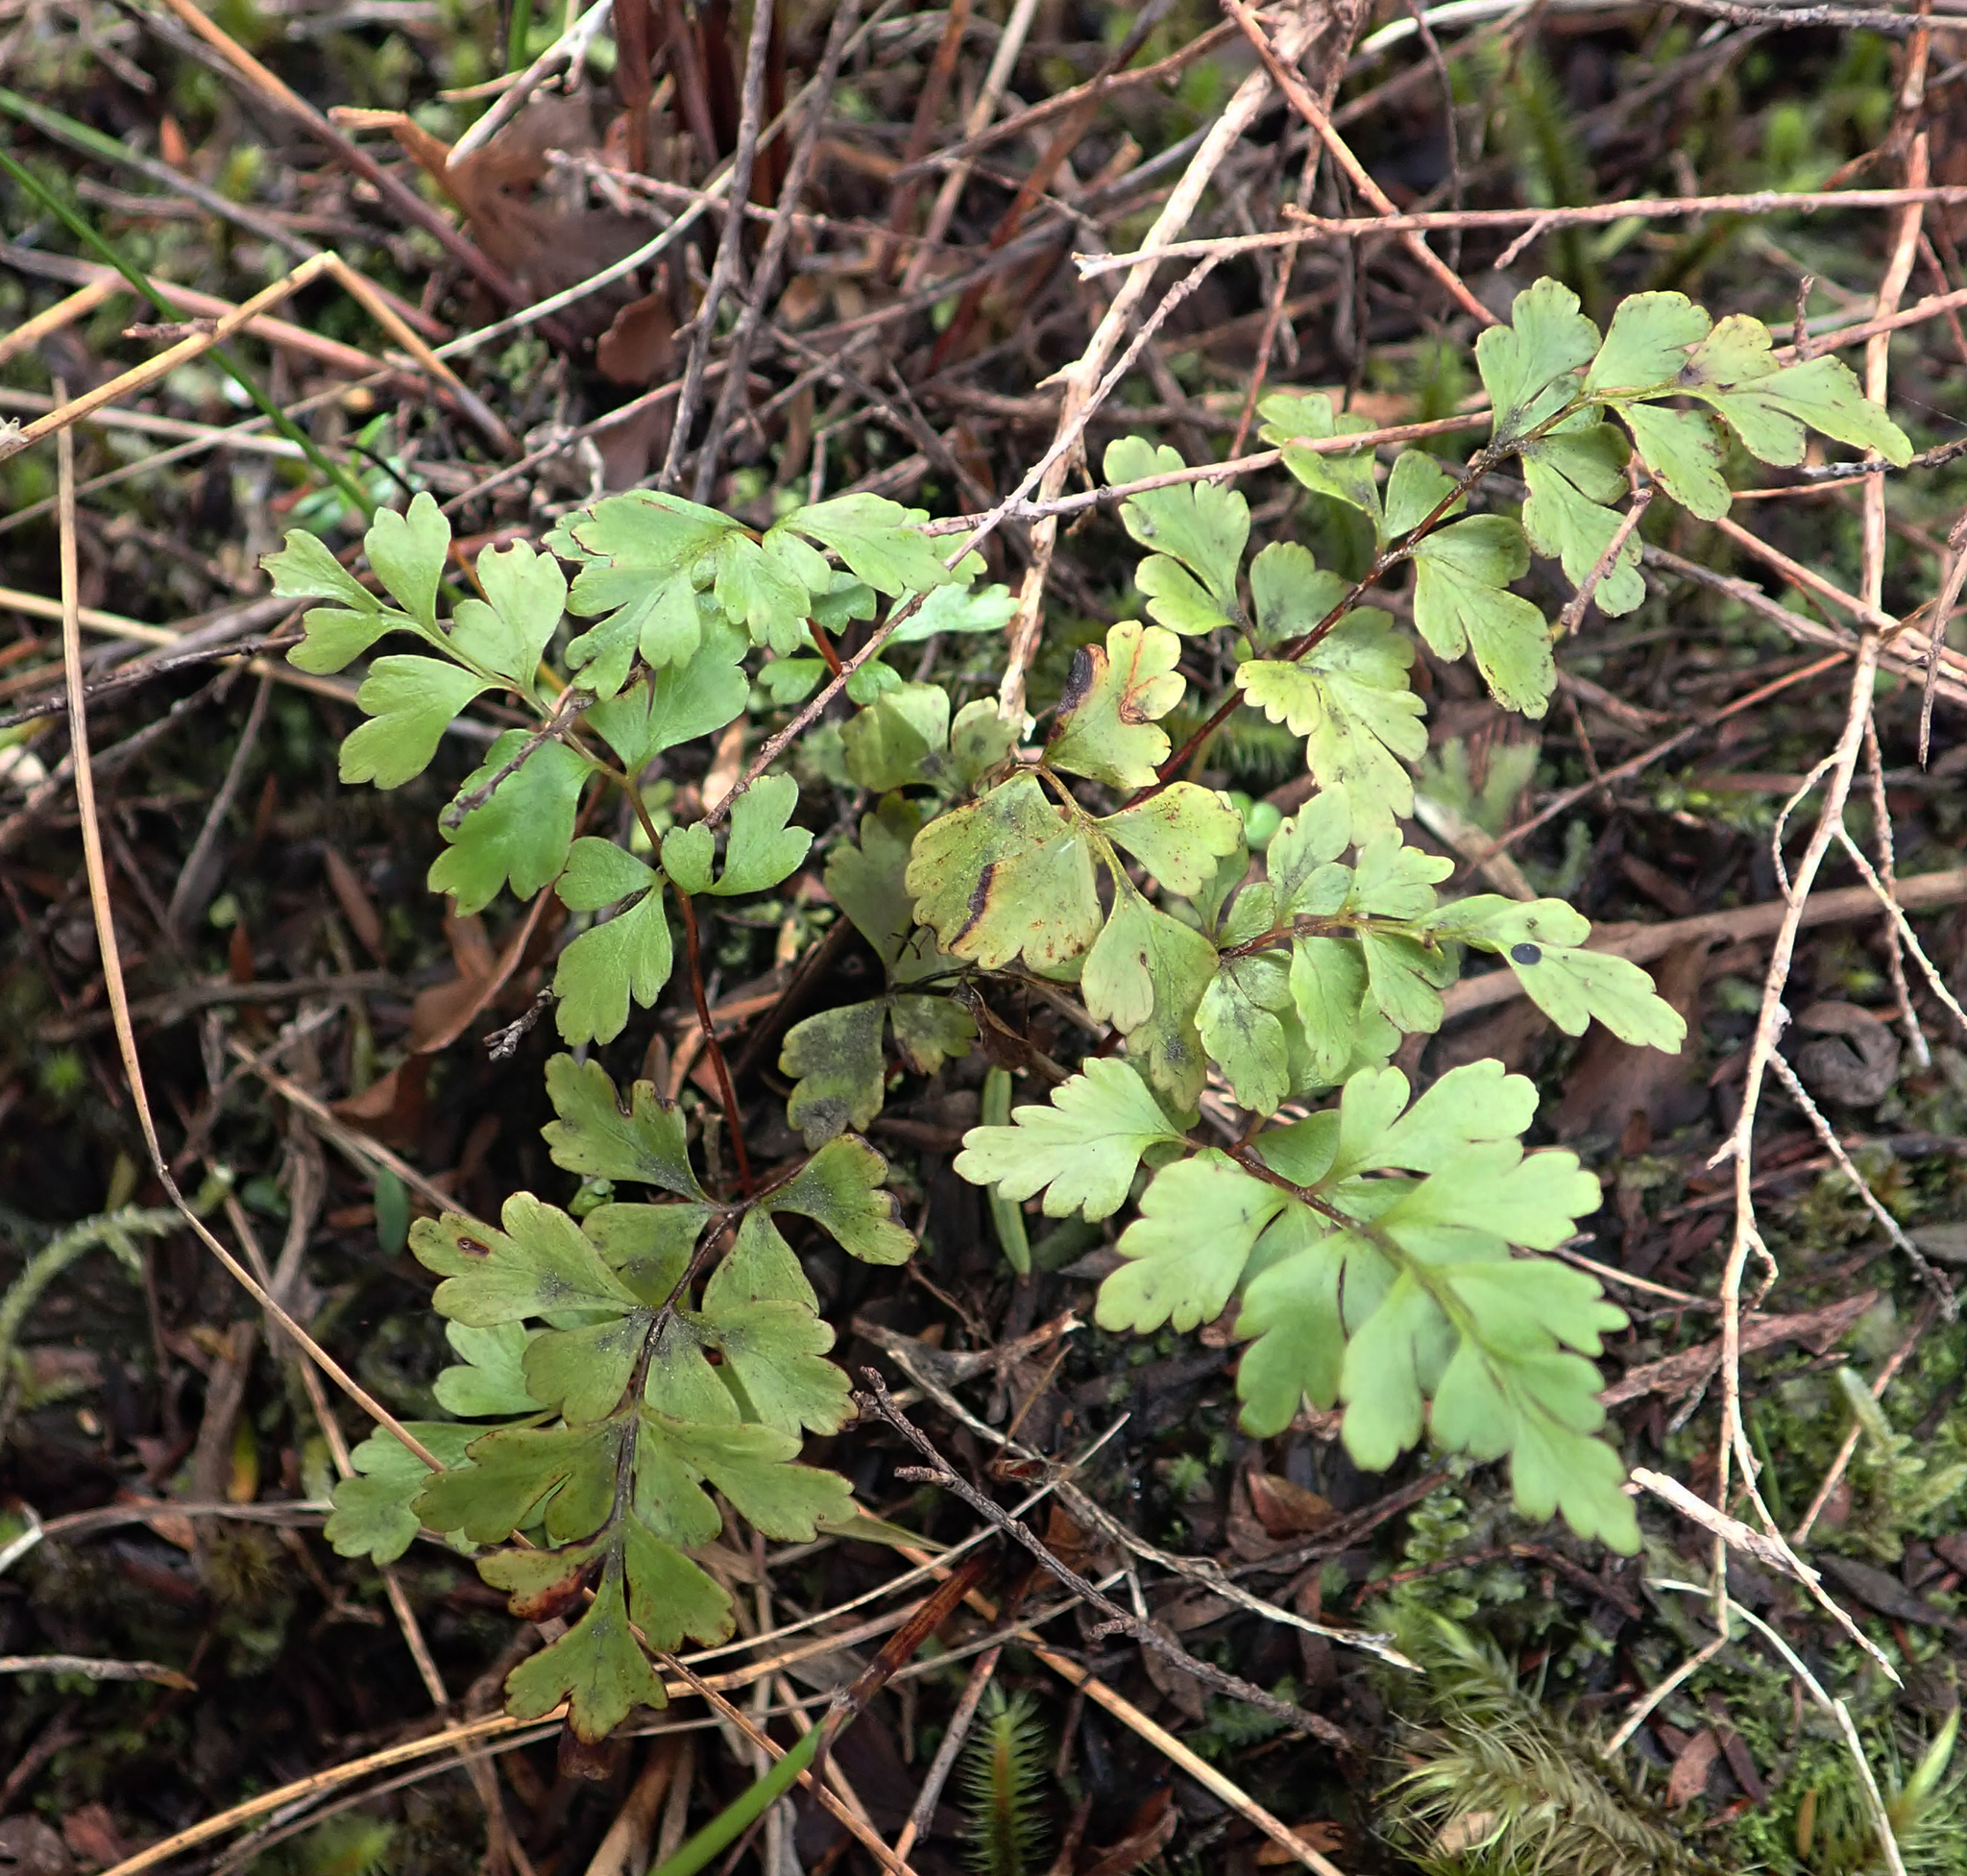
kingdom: Plantae
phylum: Tracheophyta
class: Polypodiopsida
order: Polypodiales
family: Lindsaeaceae
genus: Lindsaea
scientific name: Lindsaea trichomanoides
